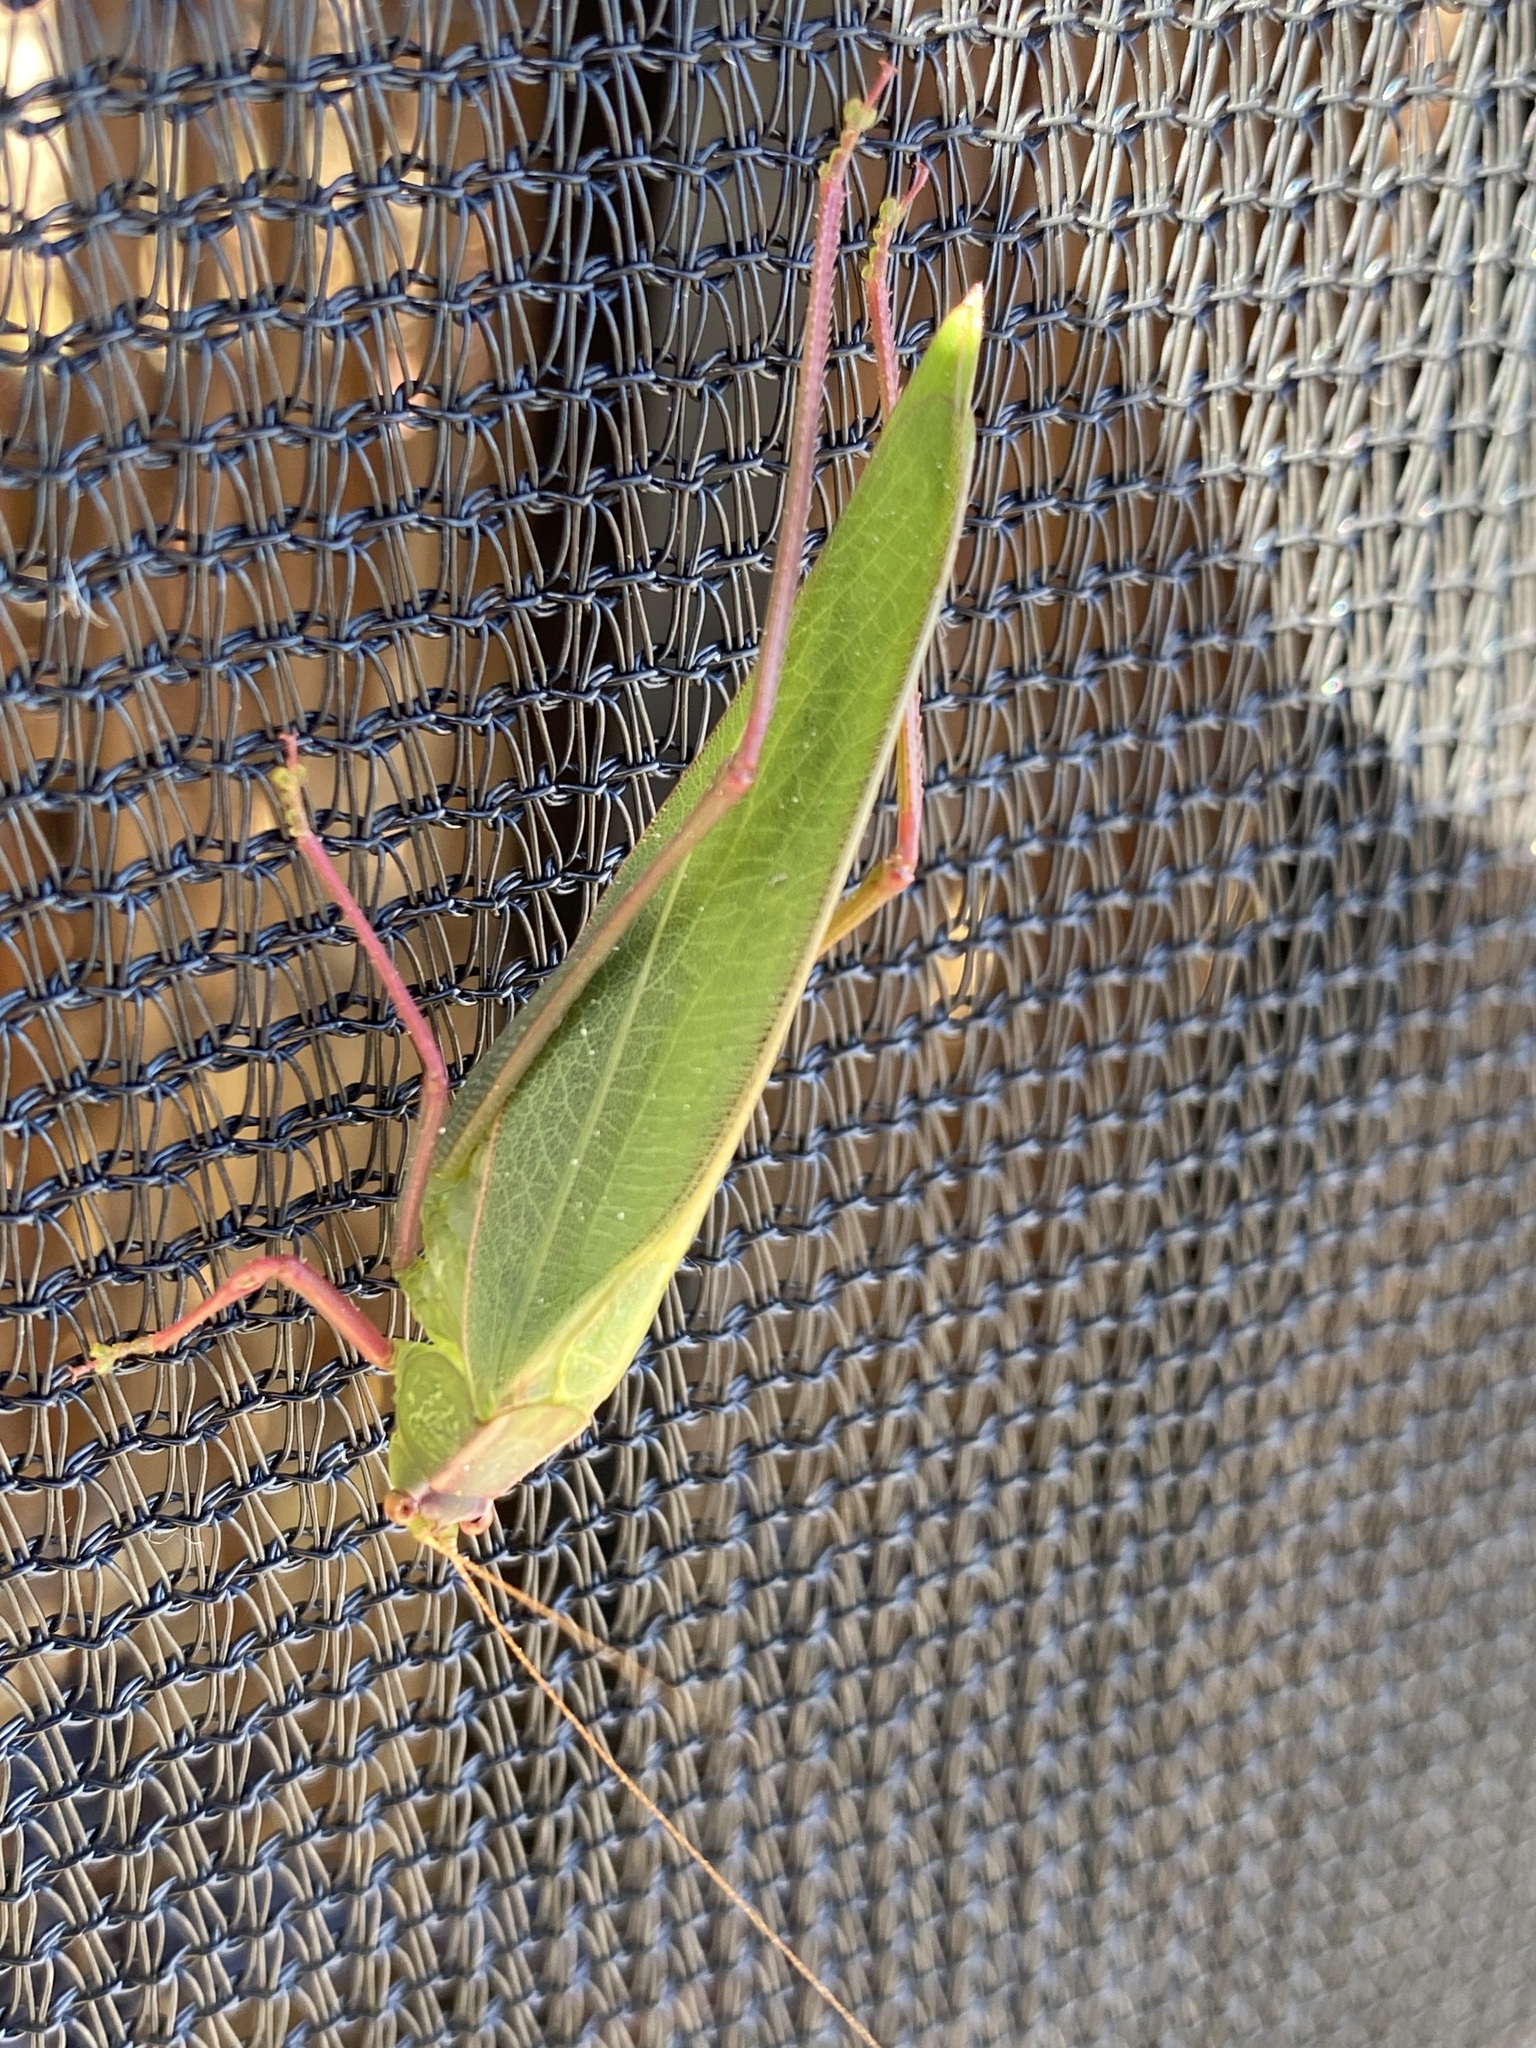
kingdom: Animalia
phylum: Arthropoda
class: Insecta
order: Orthoptera
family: Tettigoniidae
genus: Caedicia
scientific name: Caedicia simplex
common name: Common garden katydid
